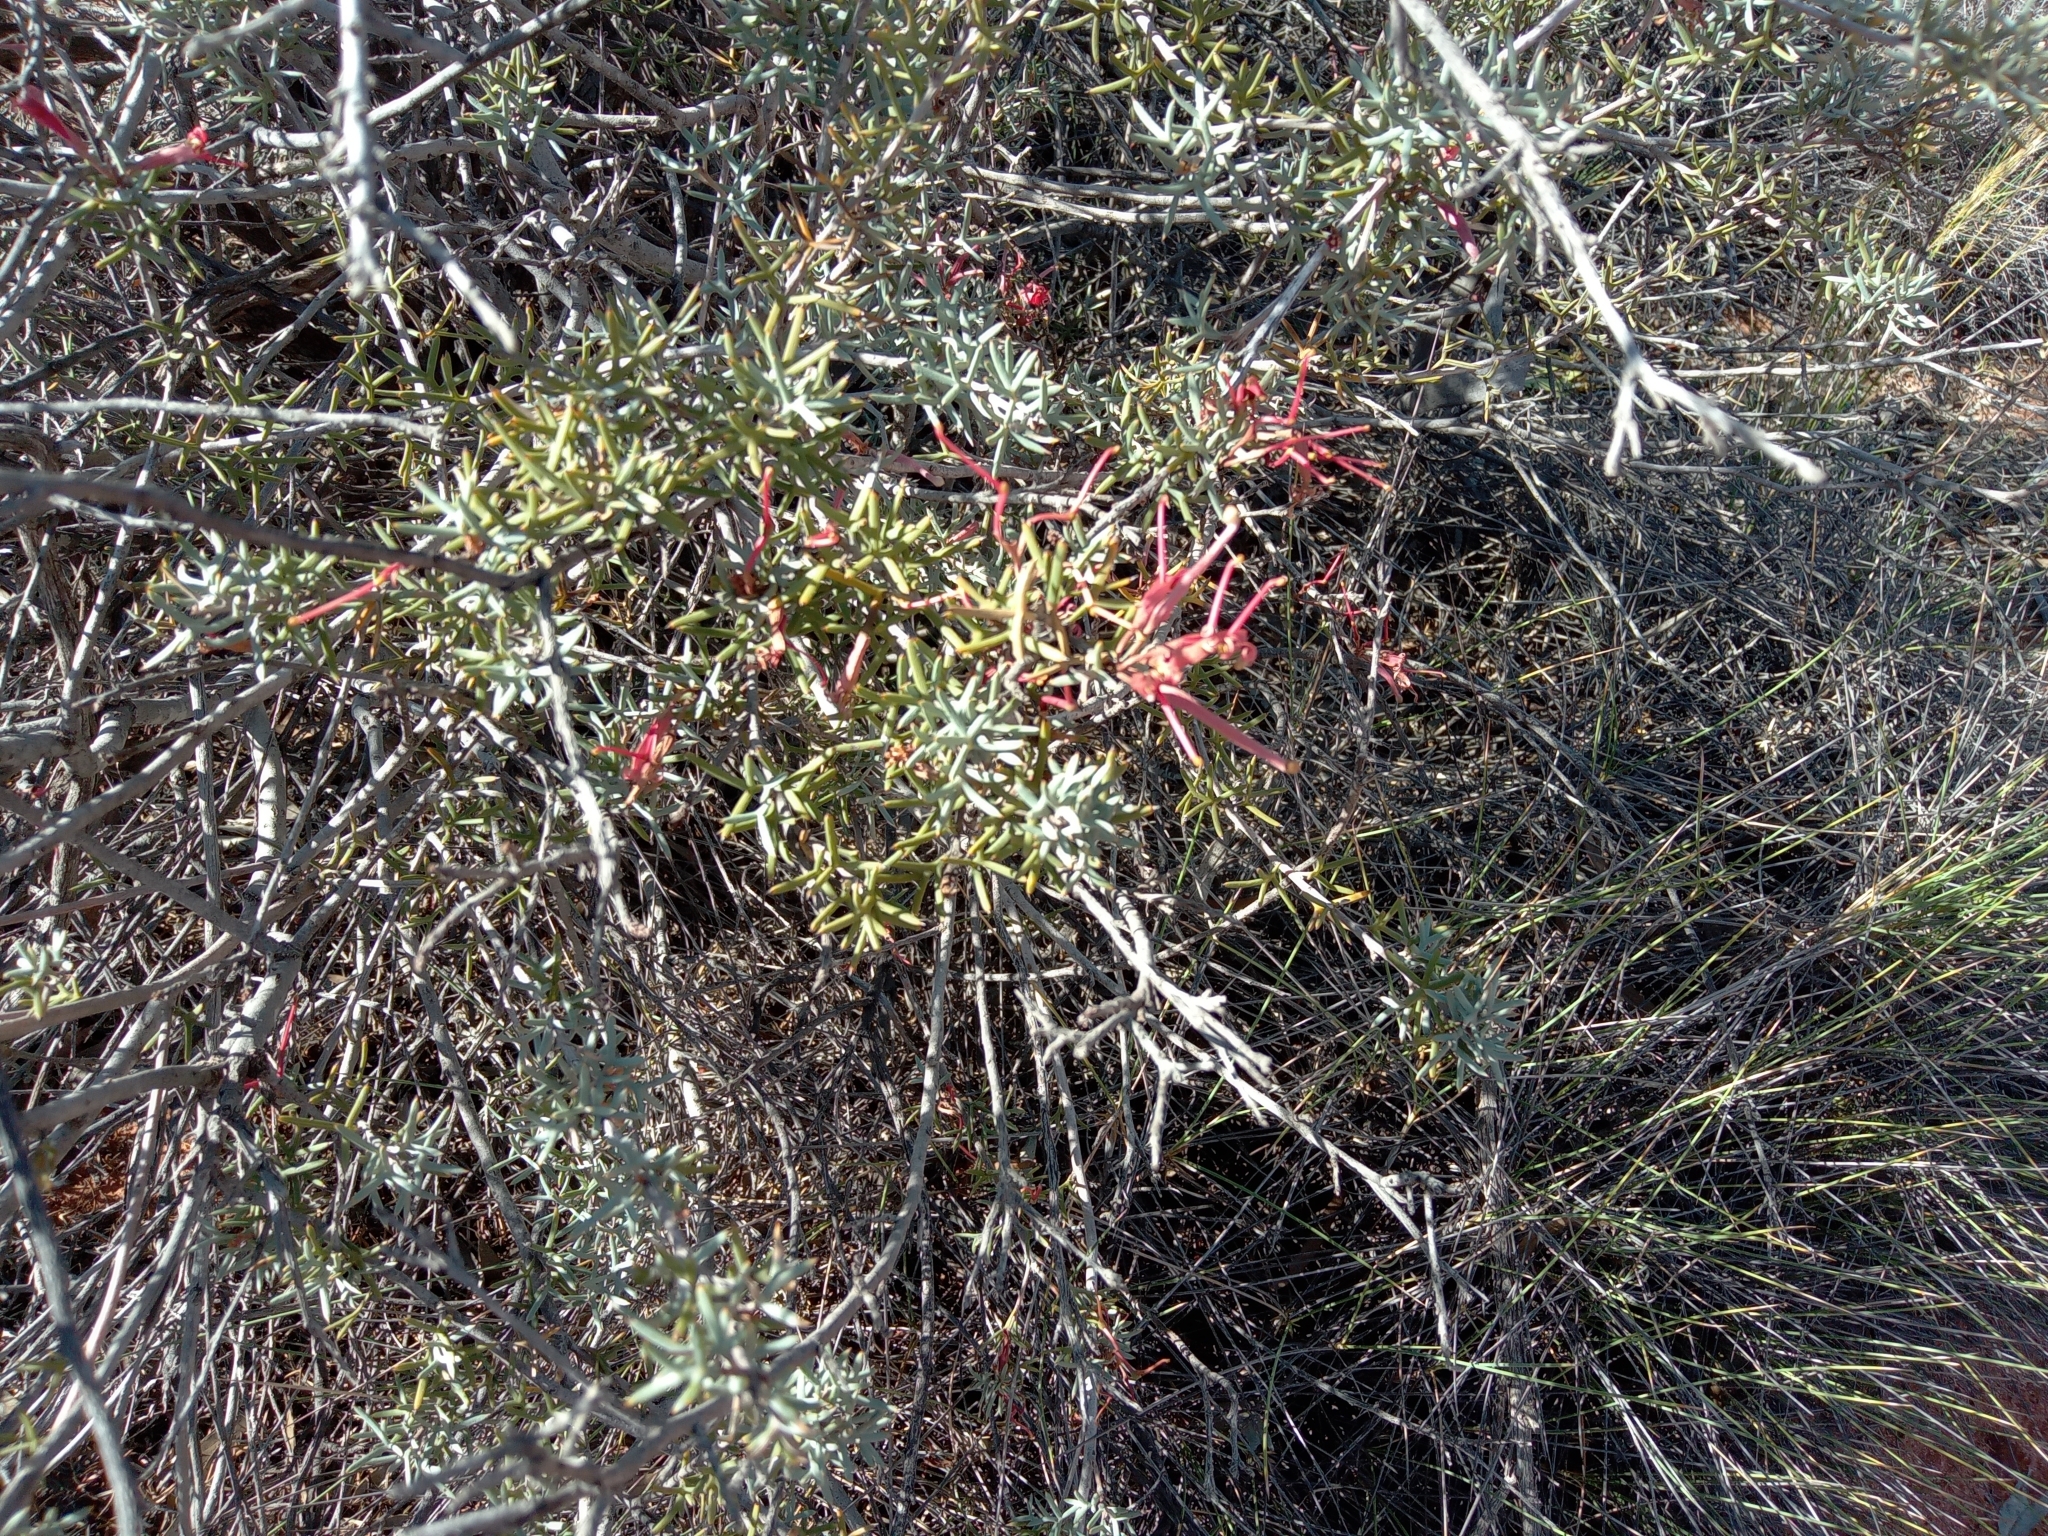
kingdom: Plantae
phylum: Tracheophyta
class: Magnoliopsida
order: Proteales
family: Proteaceae
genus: Grevillea
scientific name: Grevillea huegelii
